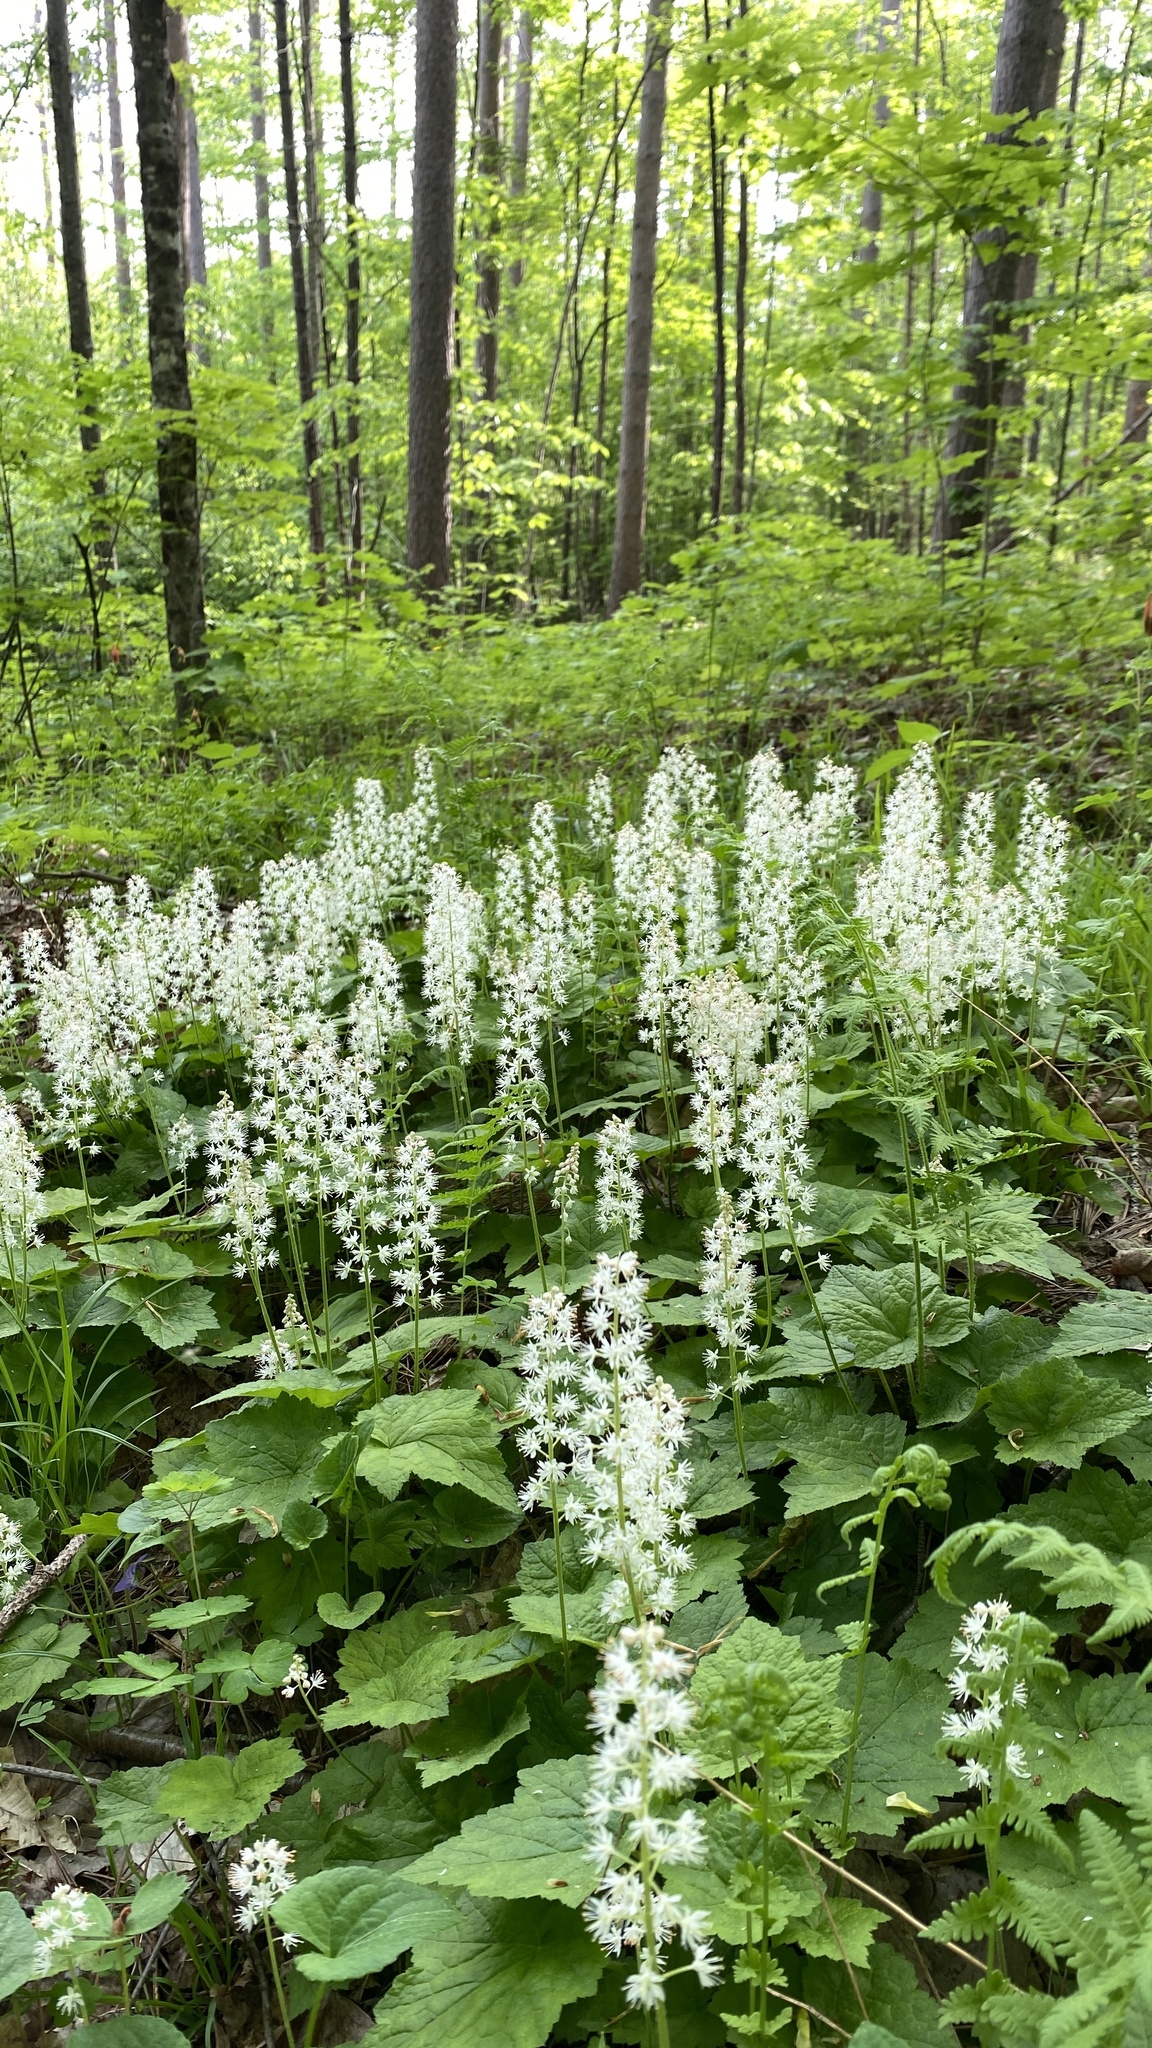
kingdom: Plantae
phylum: Tracheophyta
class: Magnoliopsida
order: Saxifragales
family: Saxifragaceae
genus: Tiarella
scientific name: Tiarella stolonifera
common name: Stoloniferous foamflower
